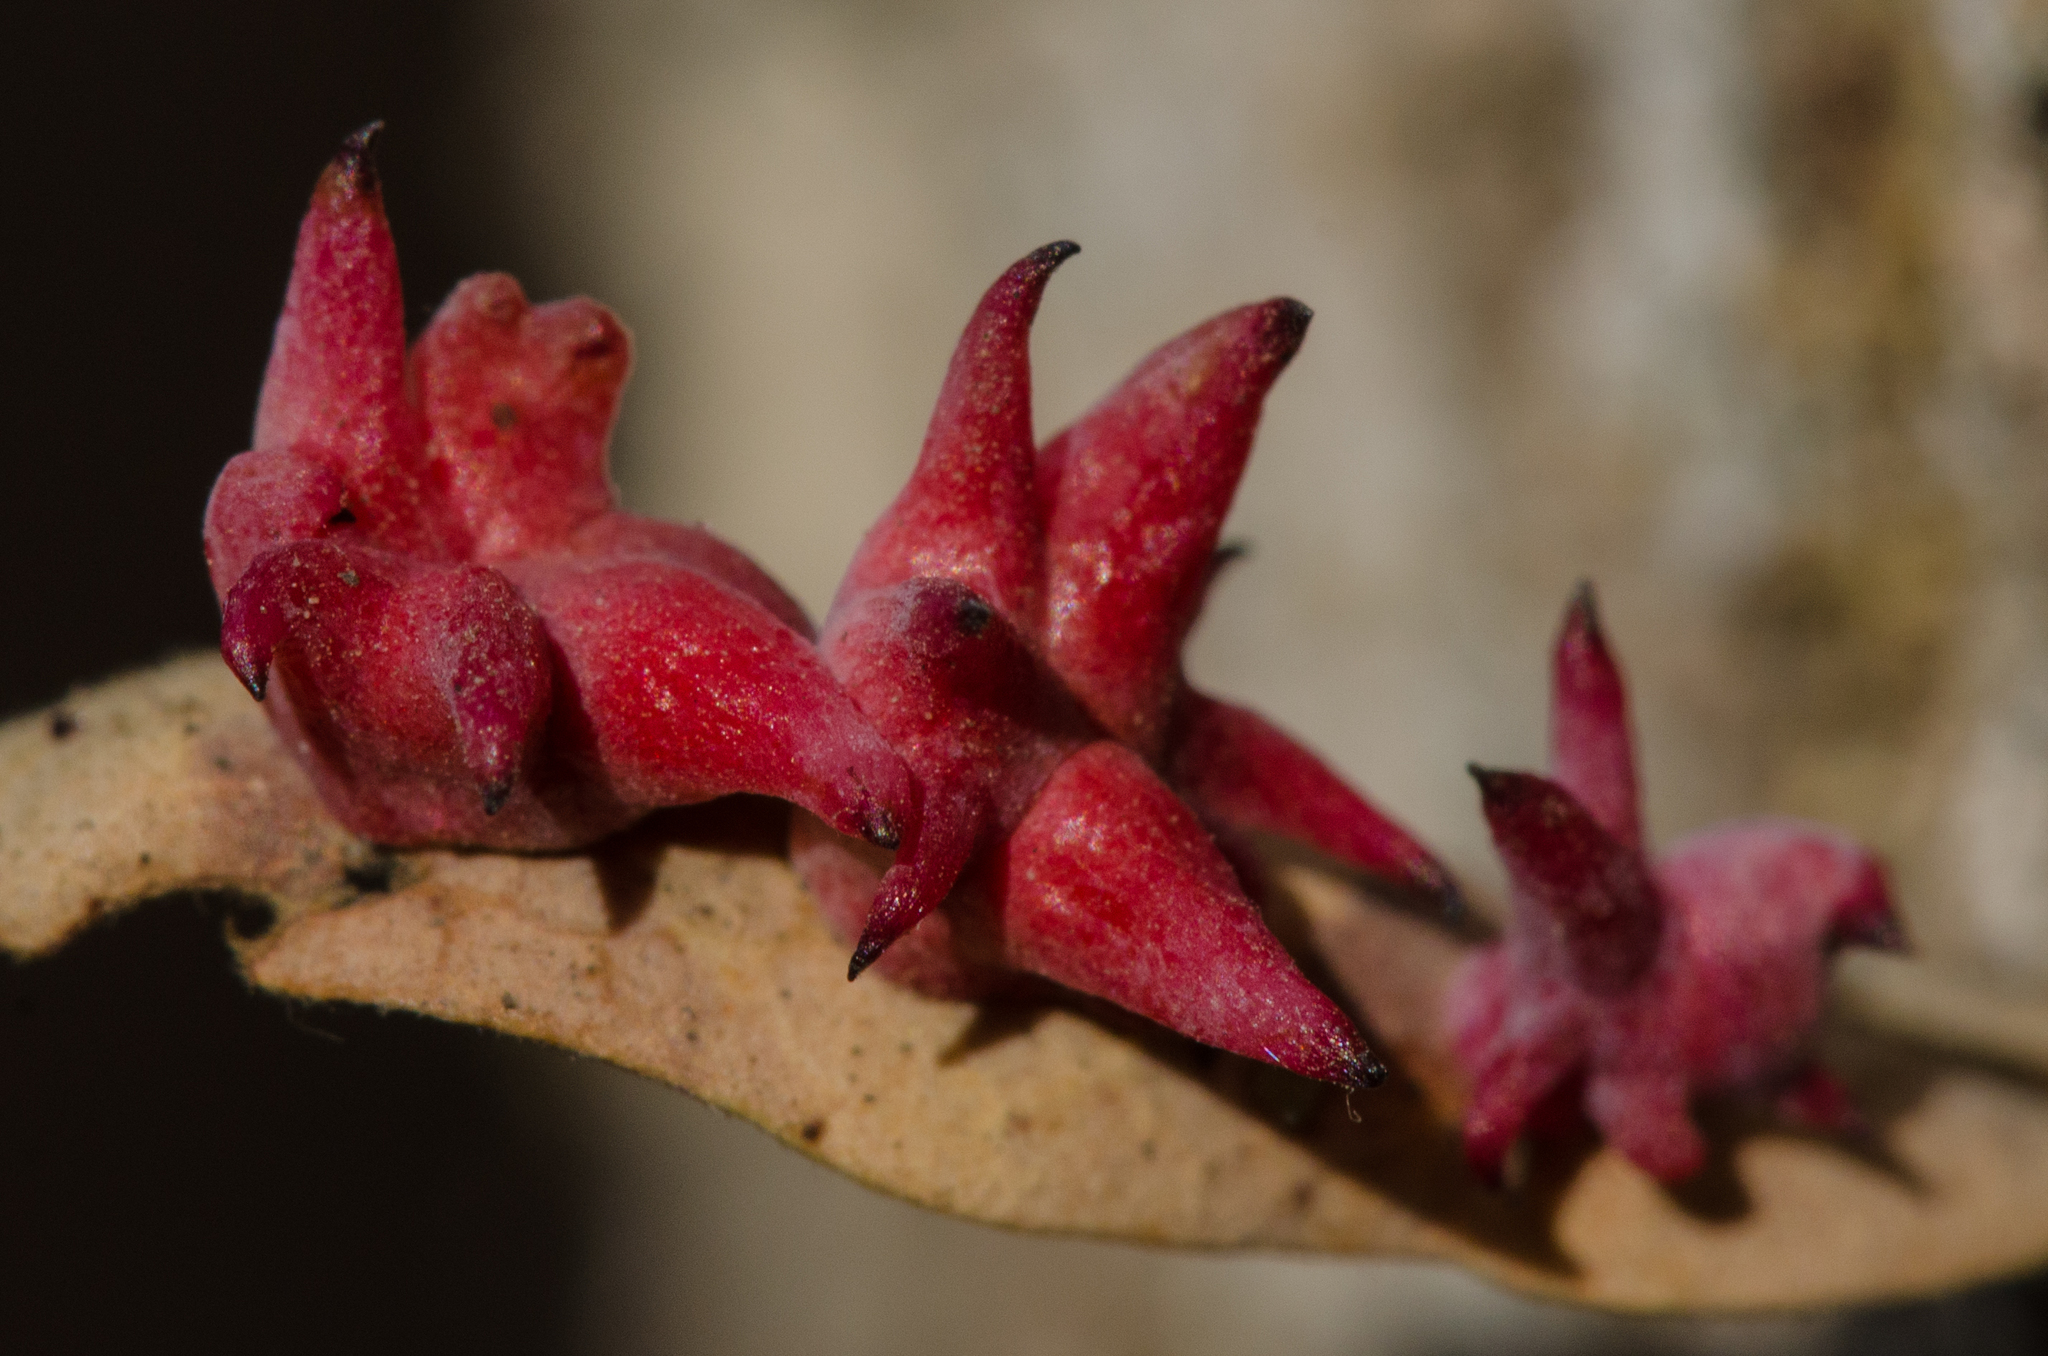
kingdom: Animalia
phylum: Arthropoda
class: Insecta
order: Hymenoptera
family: Cynipidae
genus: Cynips
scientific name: Cynips douglasi
